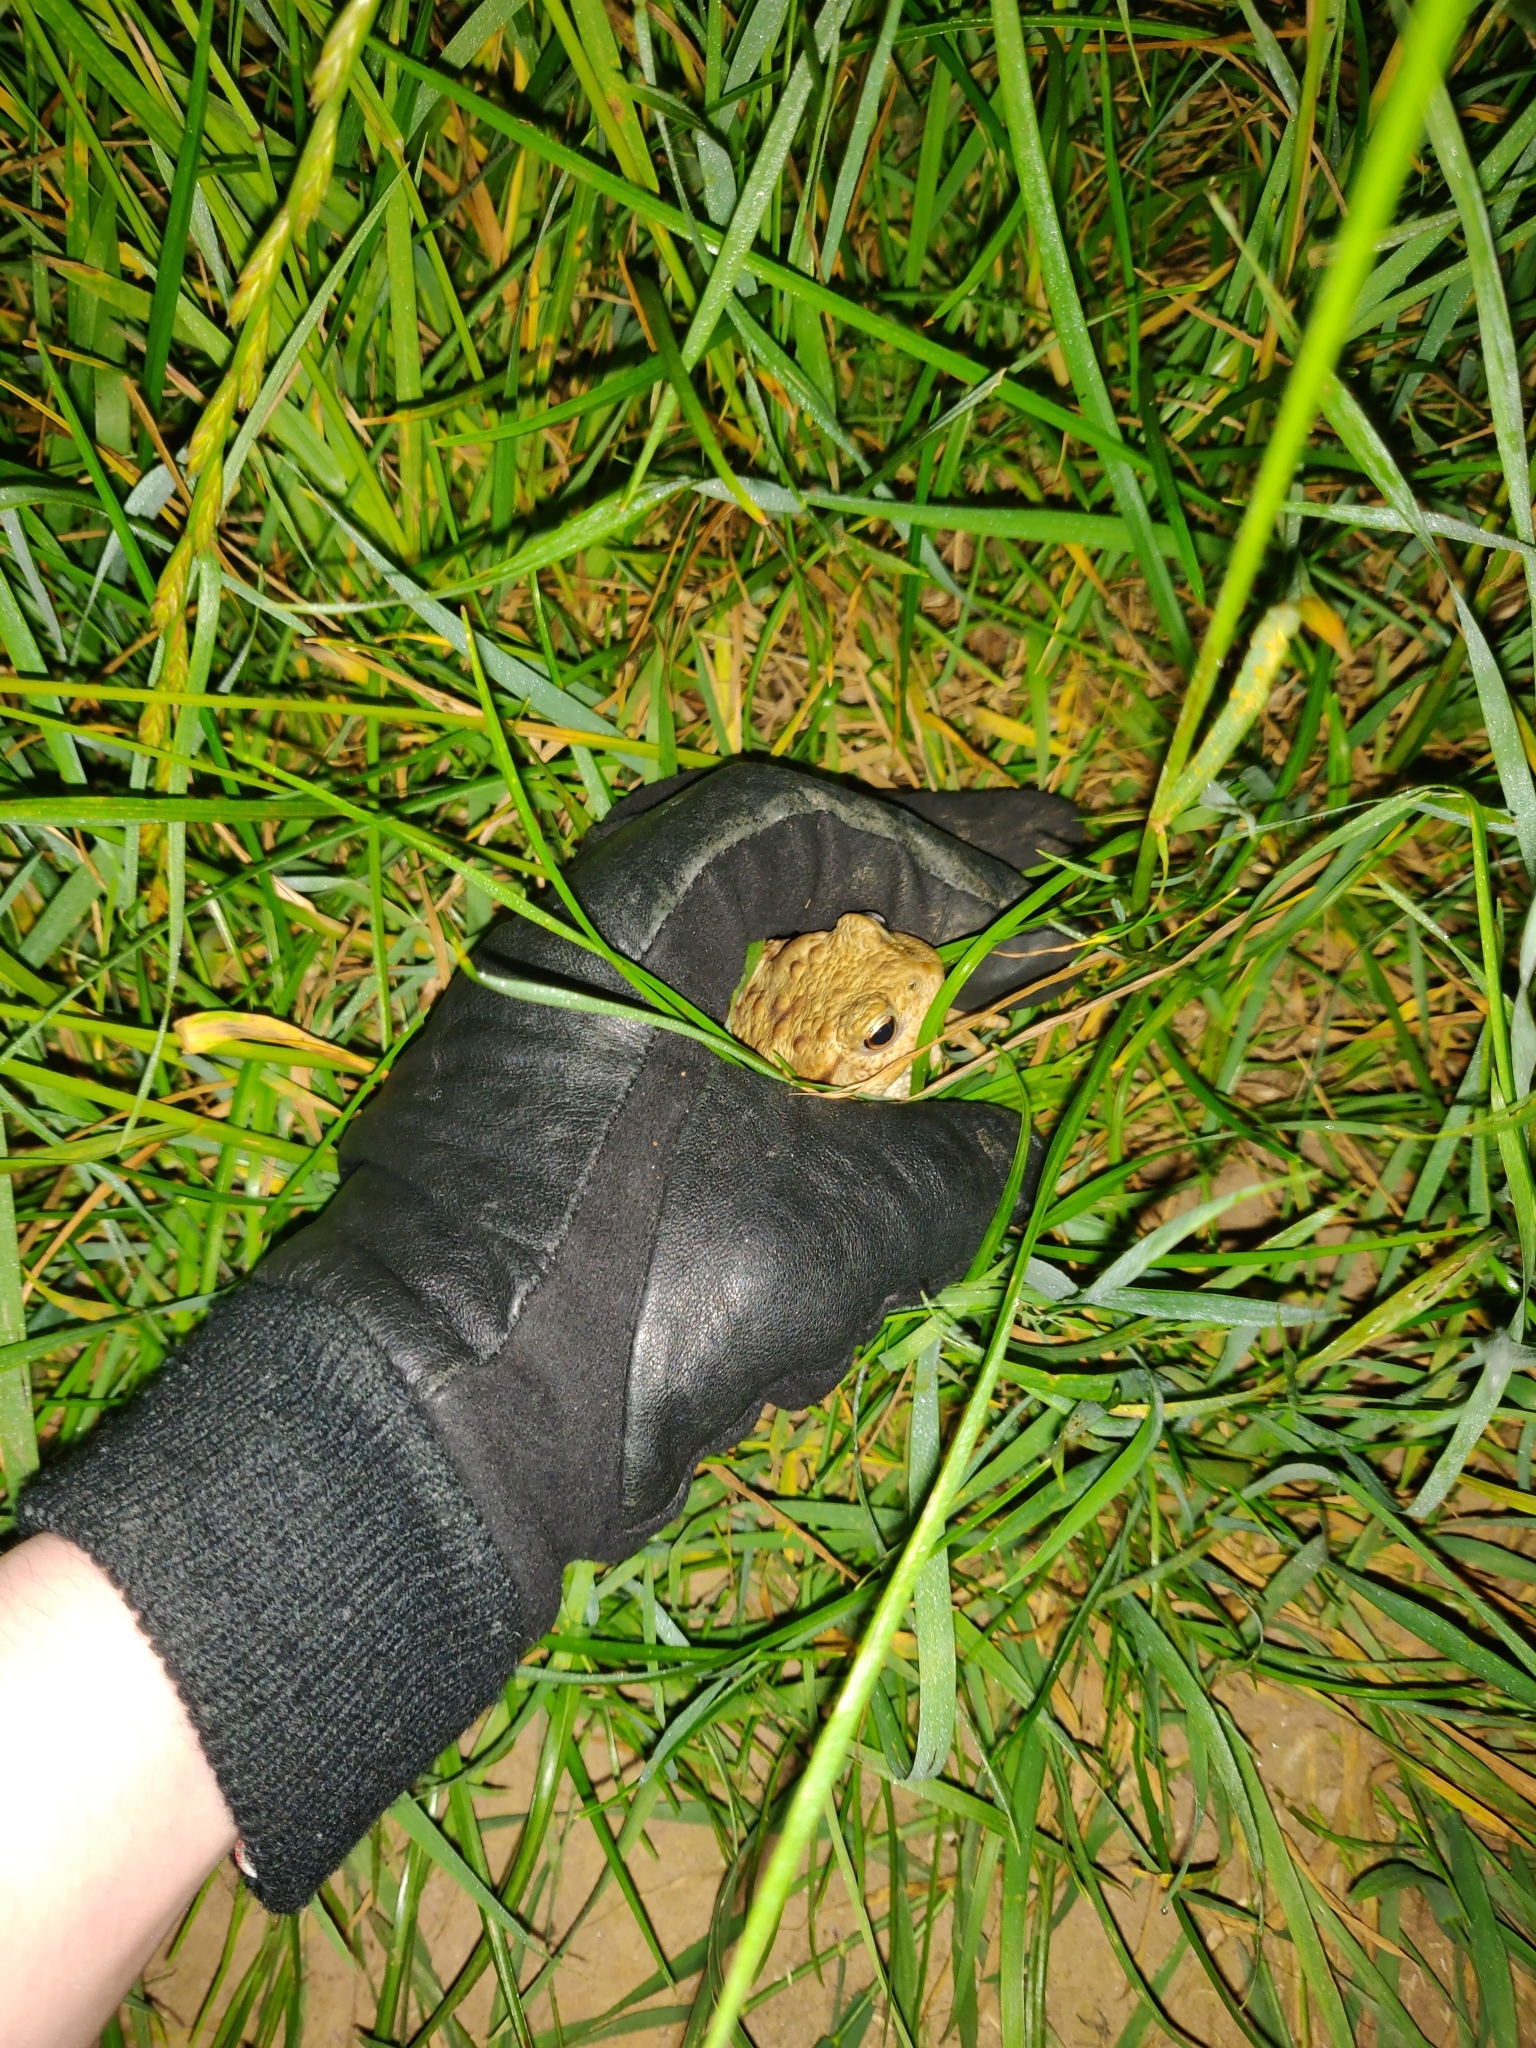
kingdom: Animalia
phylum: Chordata
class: Amphibia
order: Anura
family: Bufonidae
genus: Bufo
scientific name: Bufo bufo
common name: Common toad
